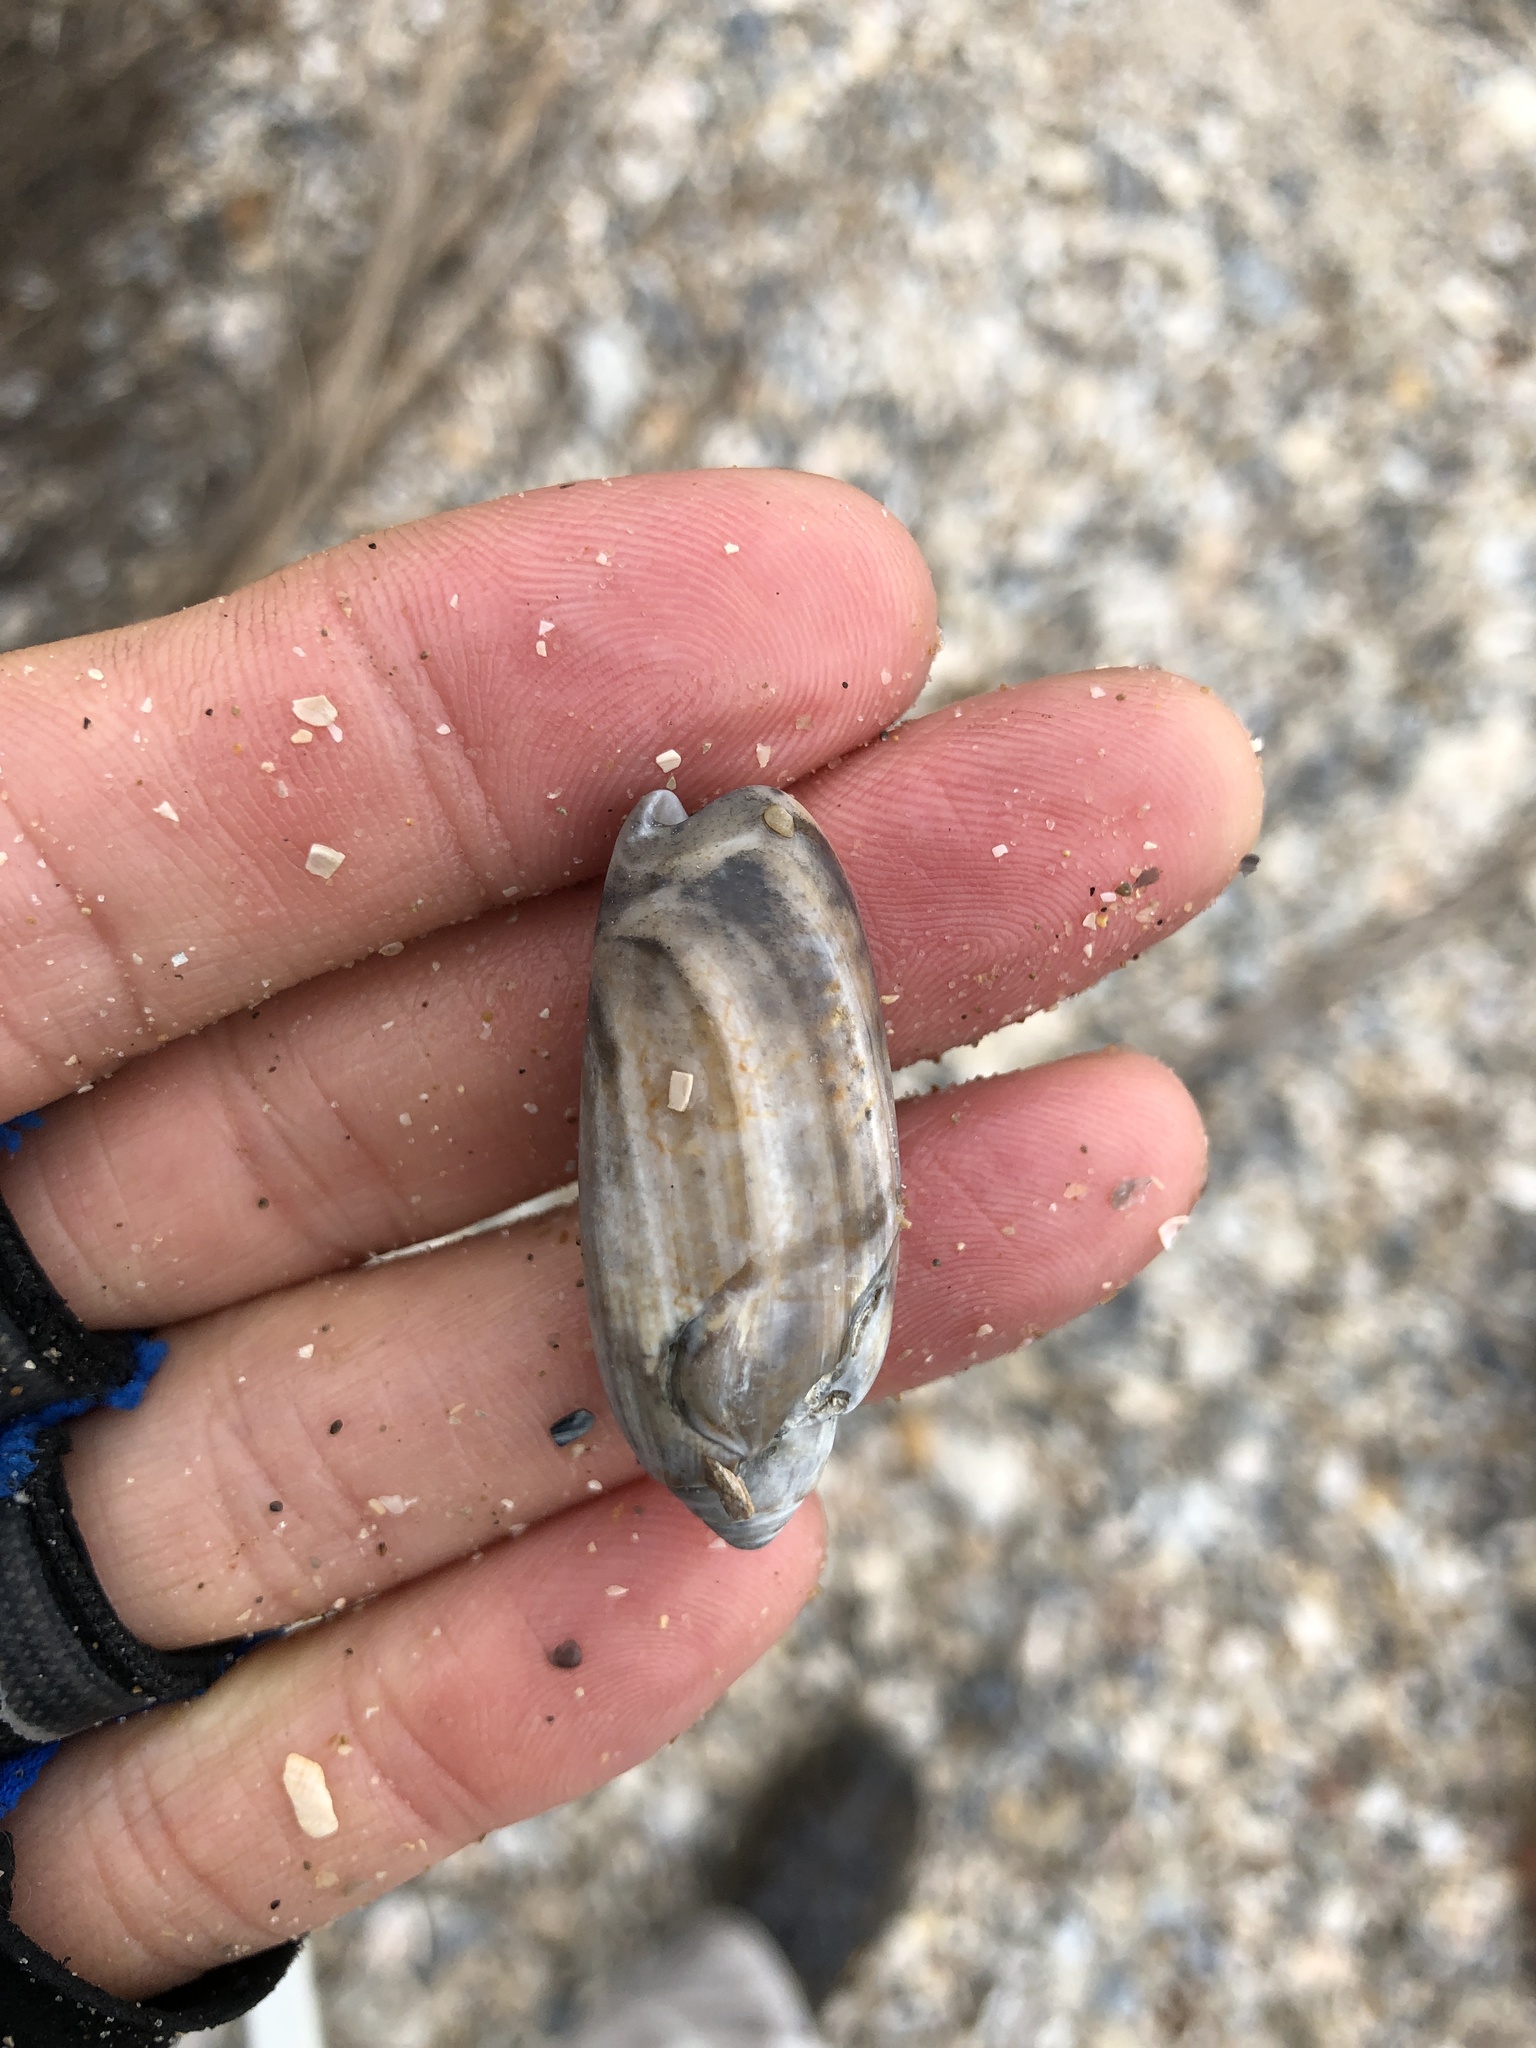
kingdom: Animalia
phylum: Mollusca
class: Gastropoda
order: Neogastropoda
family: Olividae
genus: Oliva
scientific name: Oliva sayana
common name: Lettered olive
